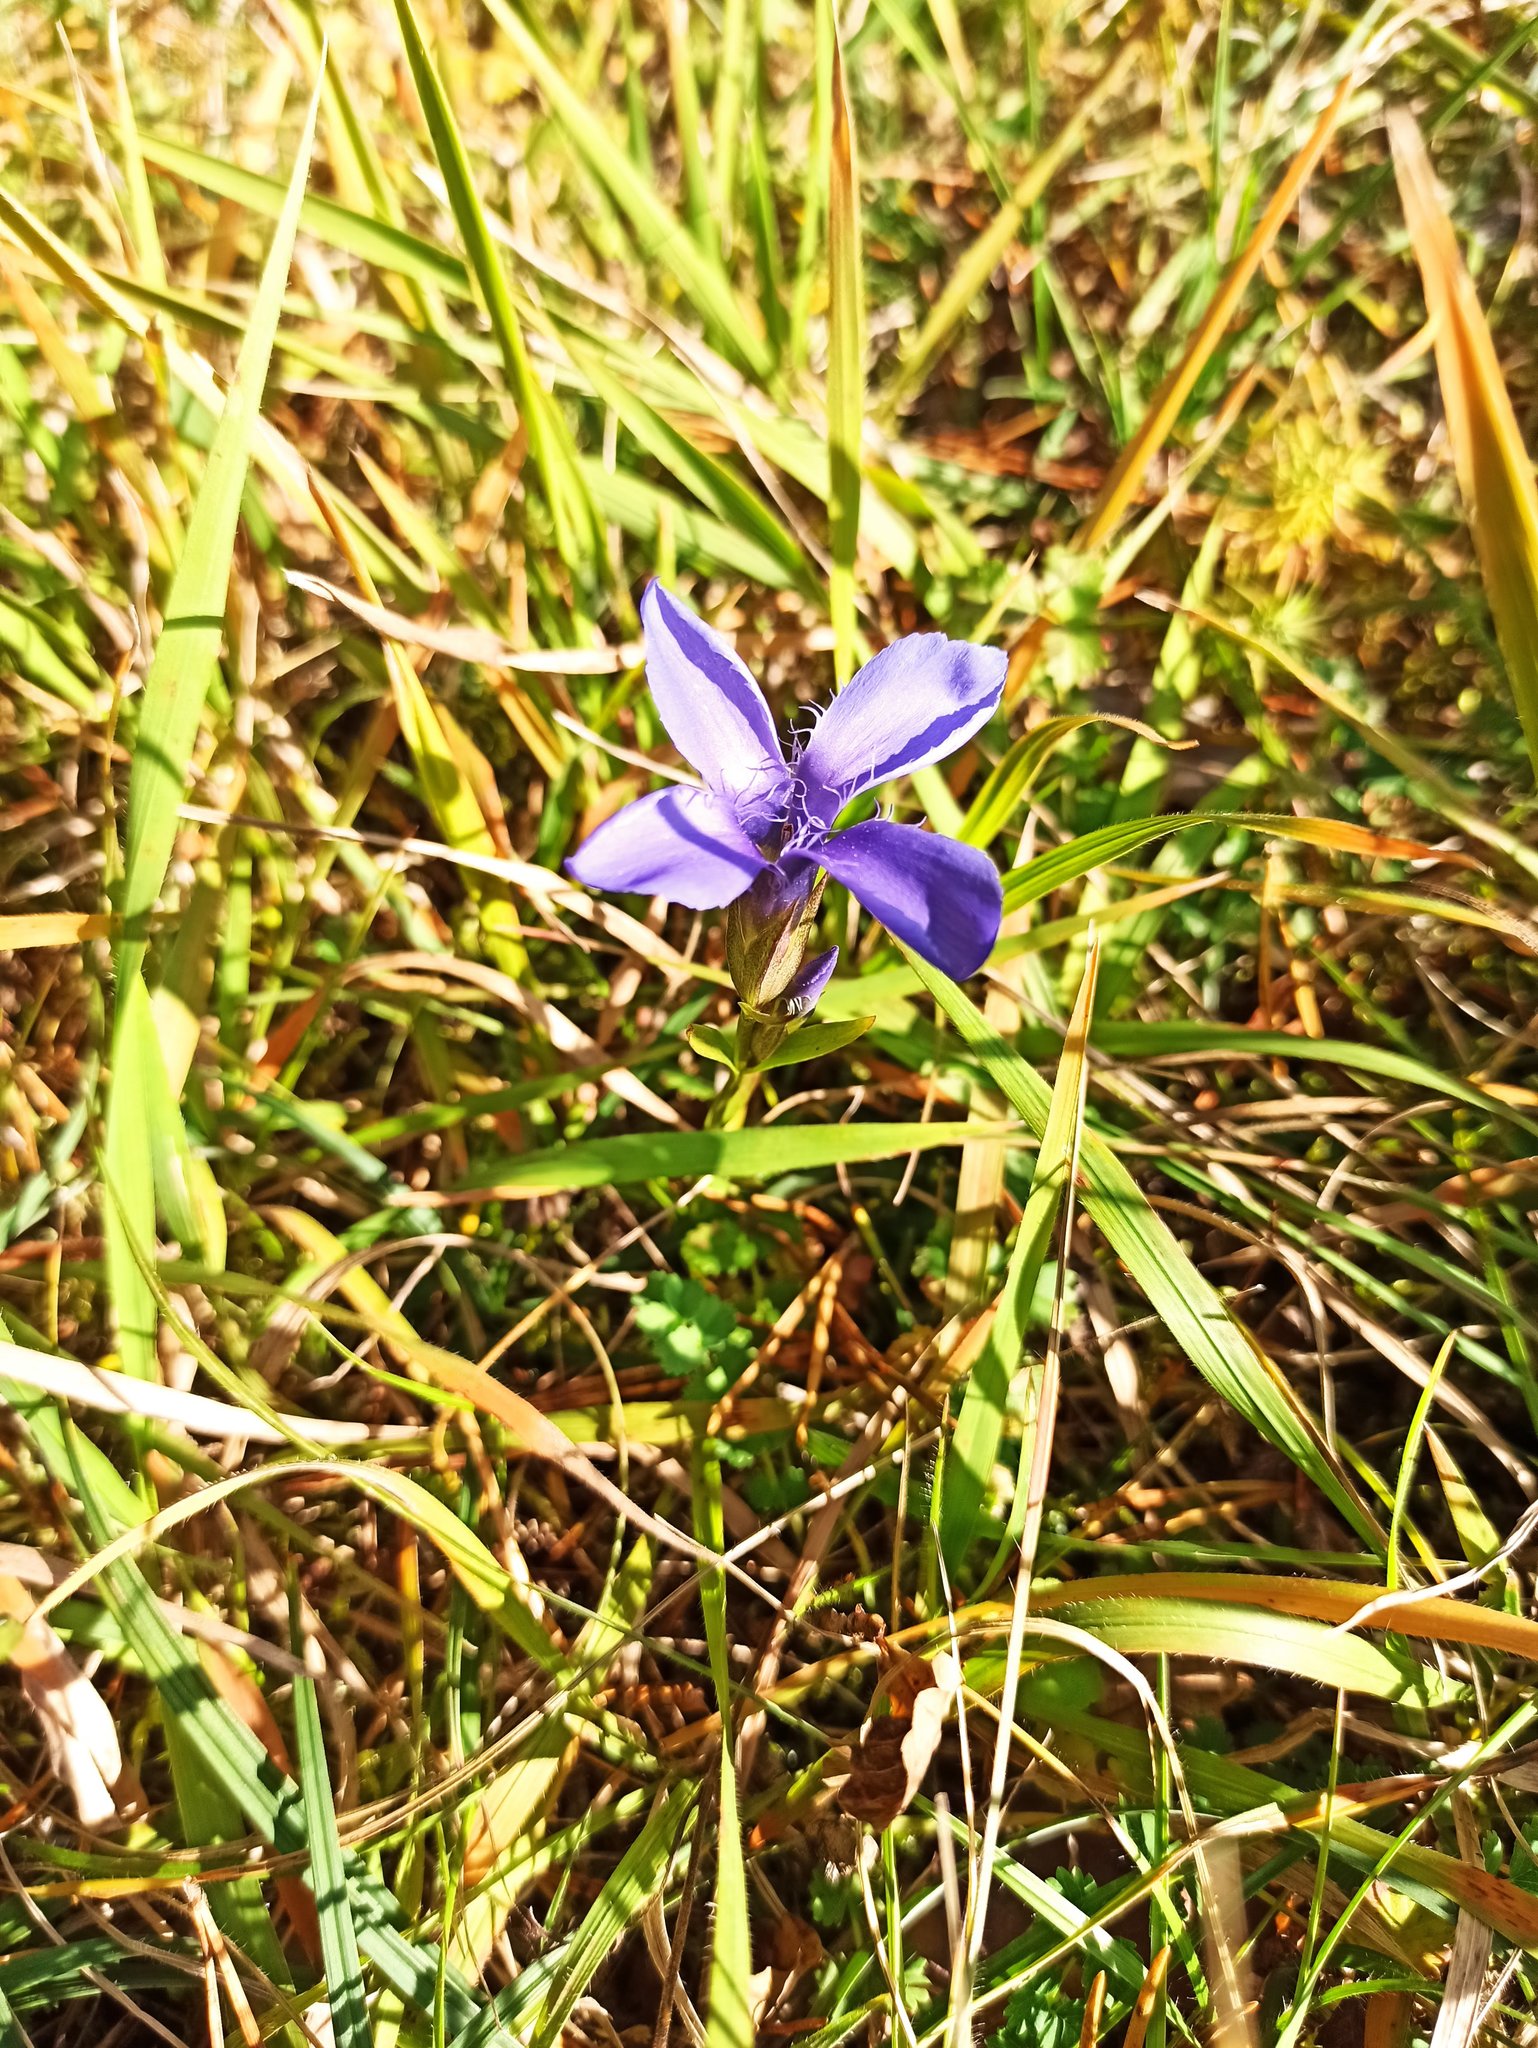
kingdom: Plantae
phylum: Tracheophyta
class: Magnoliopsida
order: Gentianales
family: Gentianaceae
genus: Gentianopsis
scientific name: Gentianopsis ciliata
